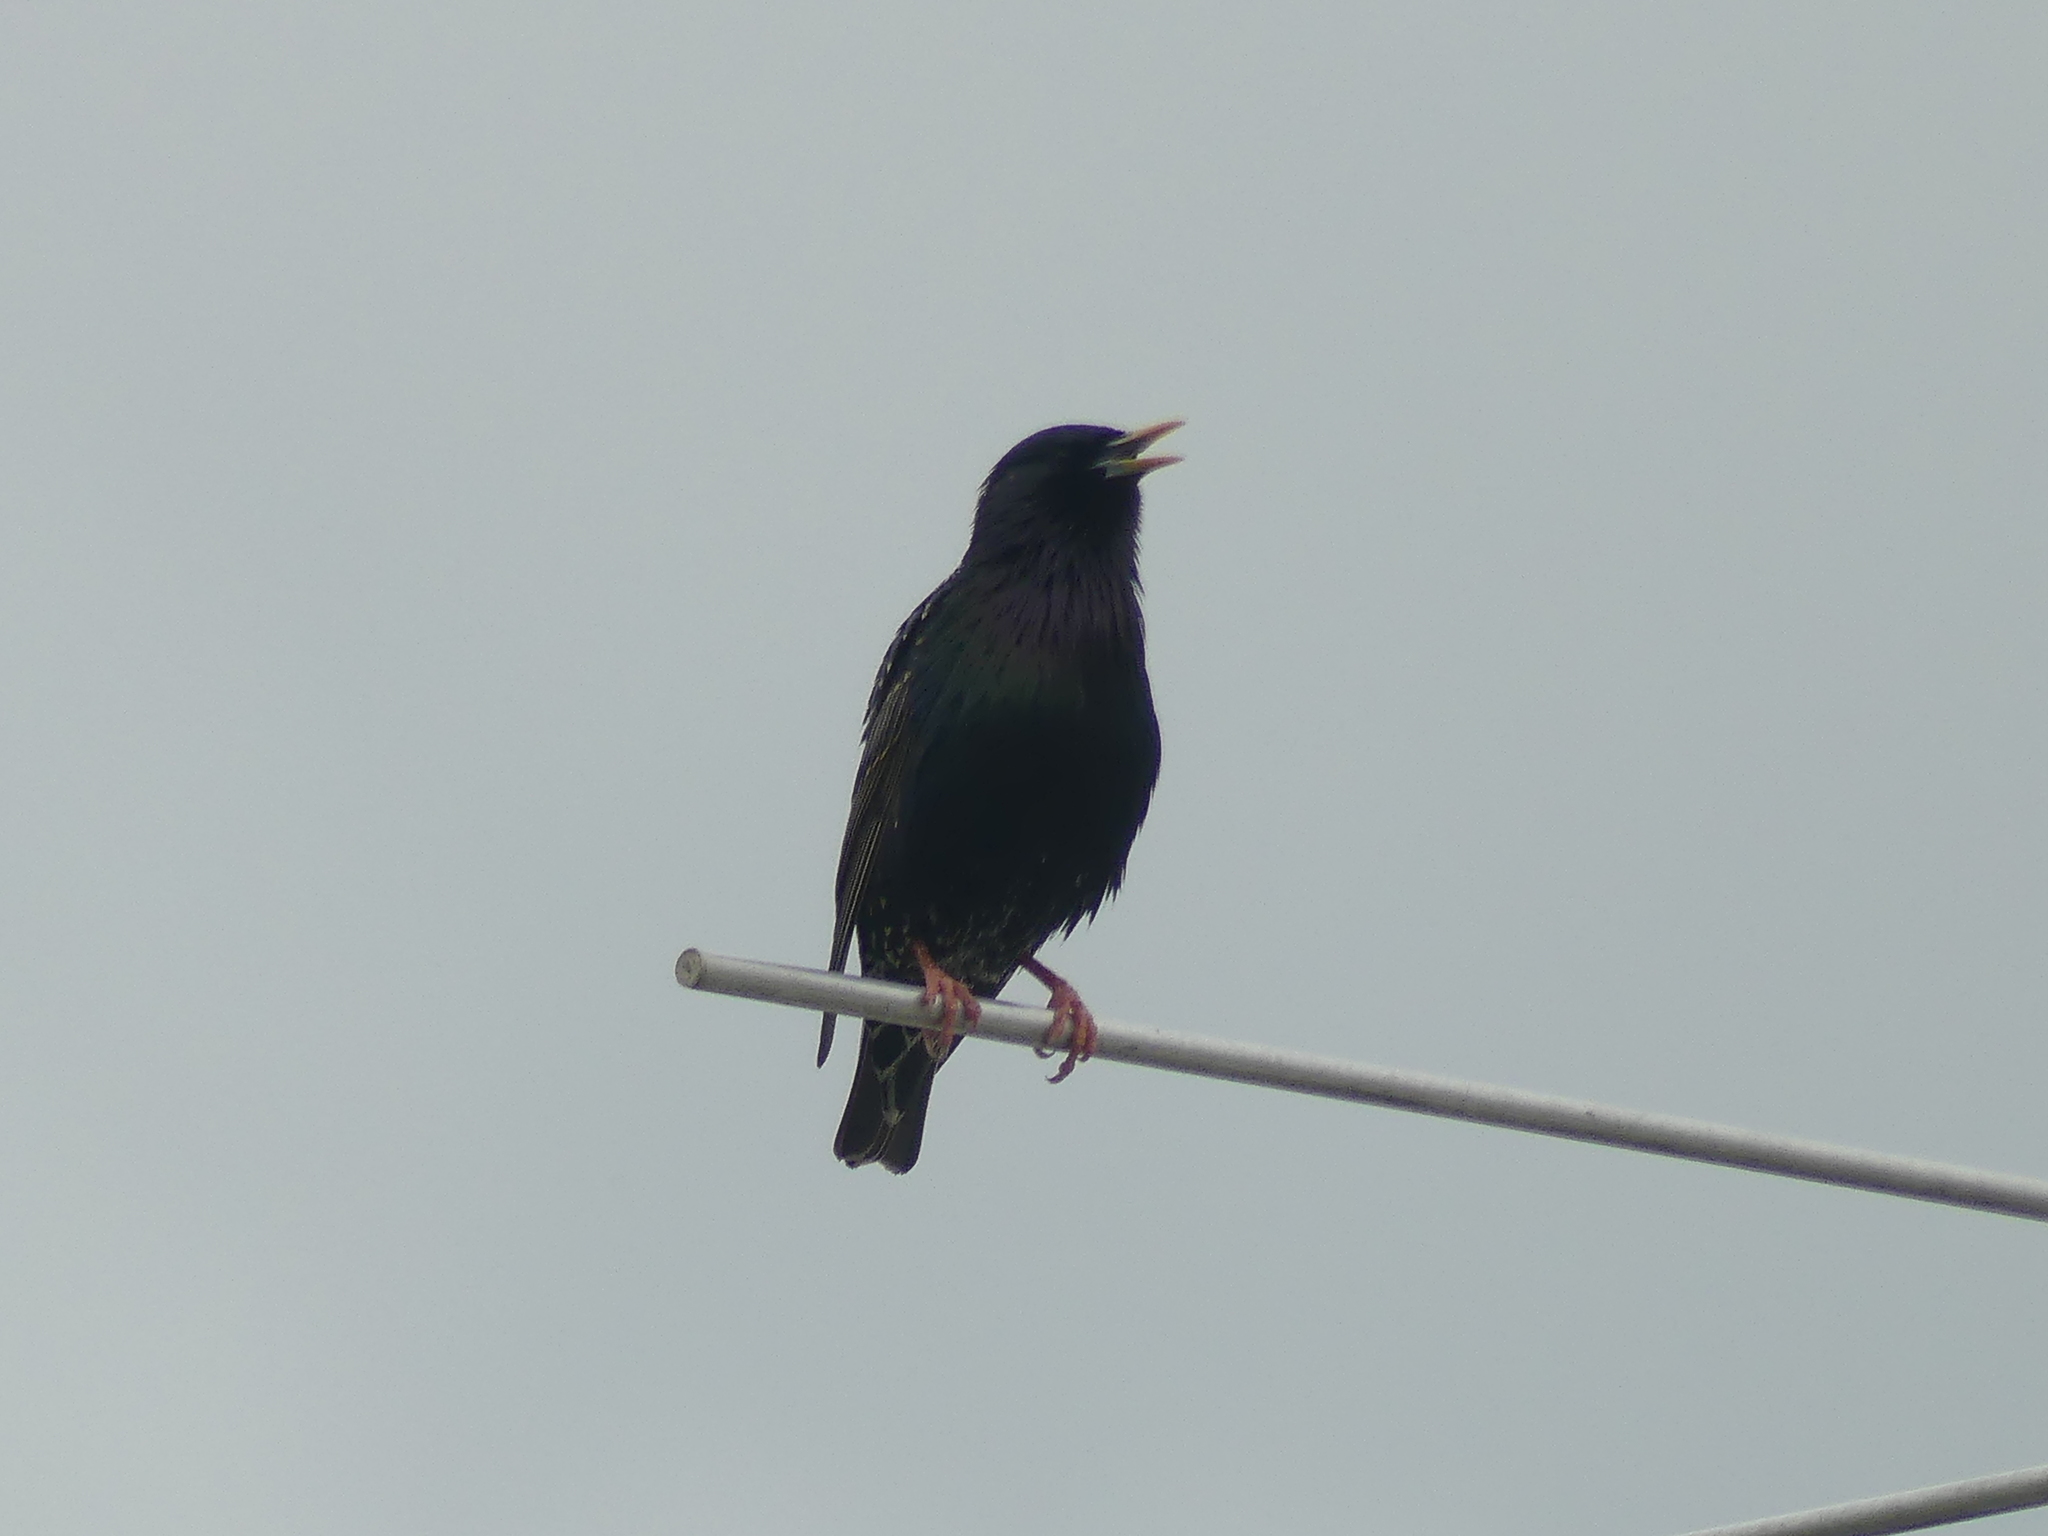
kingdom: Animalia
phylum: Chordata
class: Aves
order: Passeriformes
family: Sturnidae
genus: Sturnus
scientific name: Sturnus vulgaris
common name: Common starling
